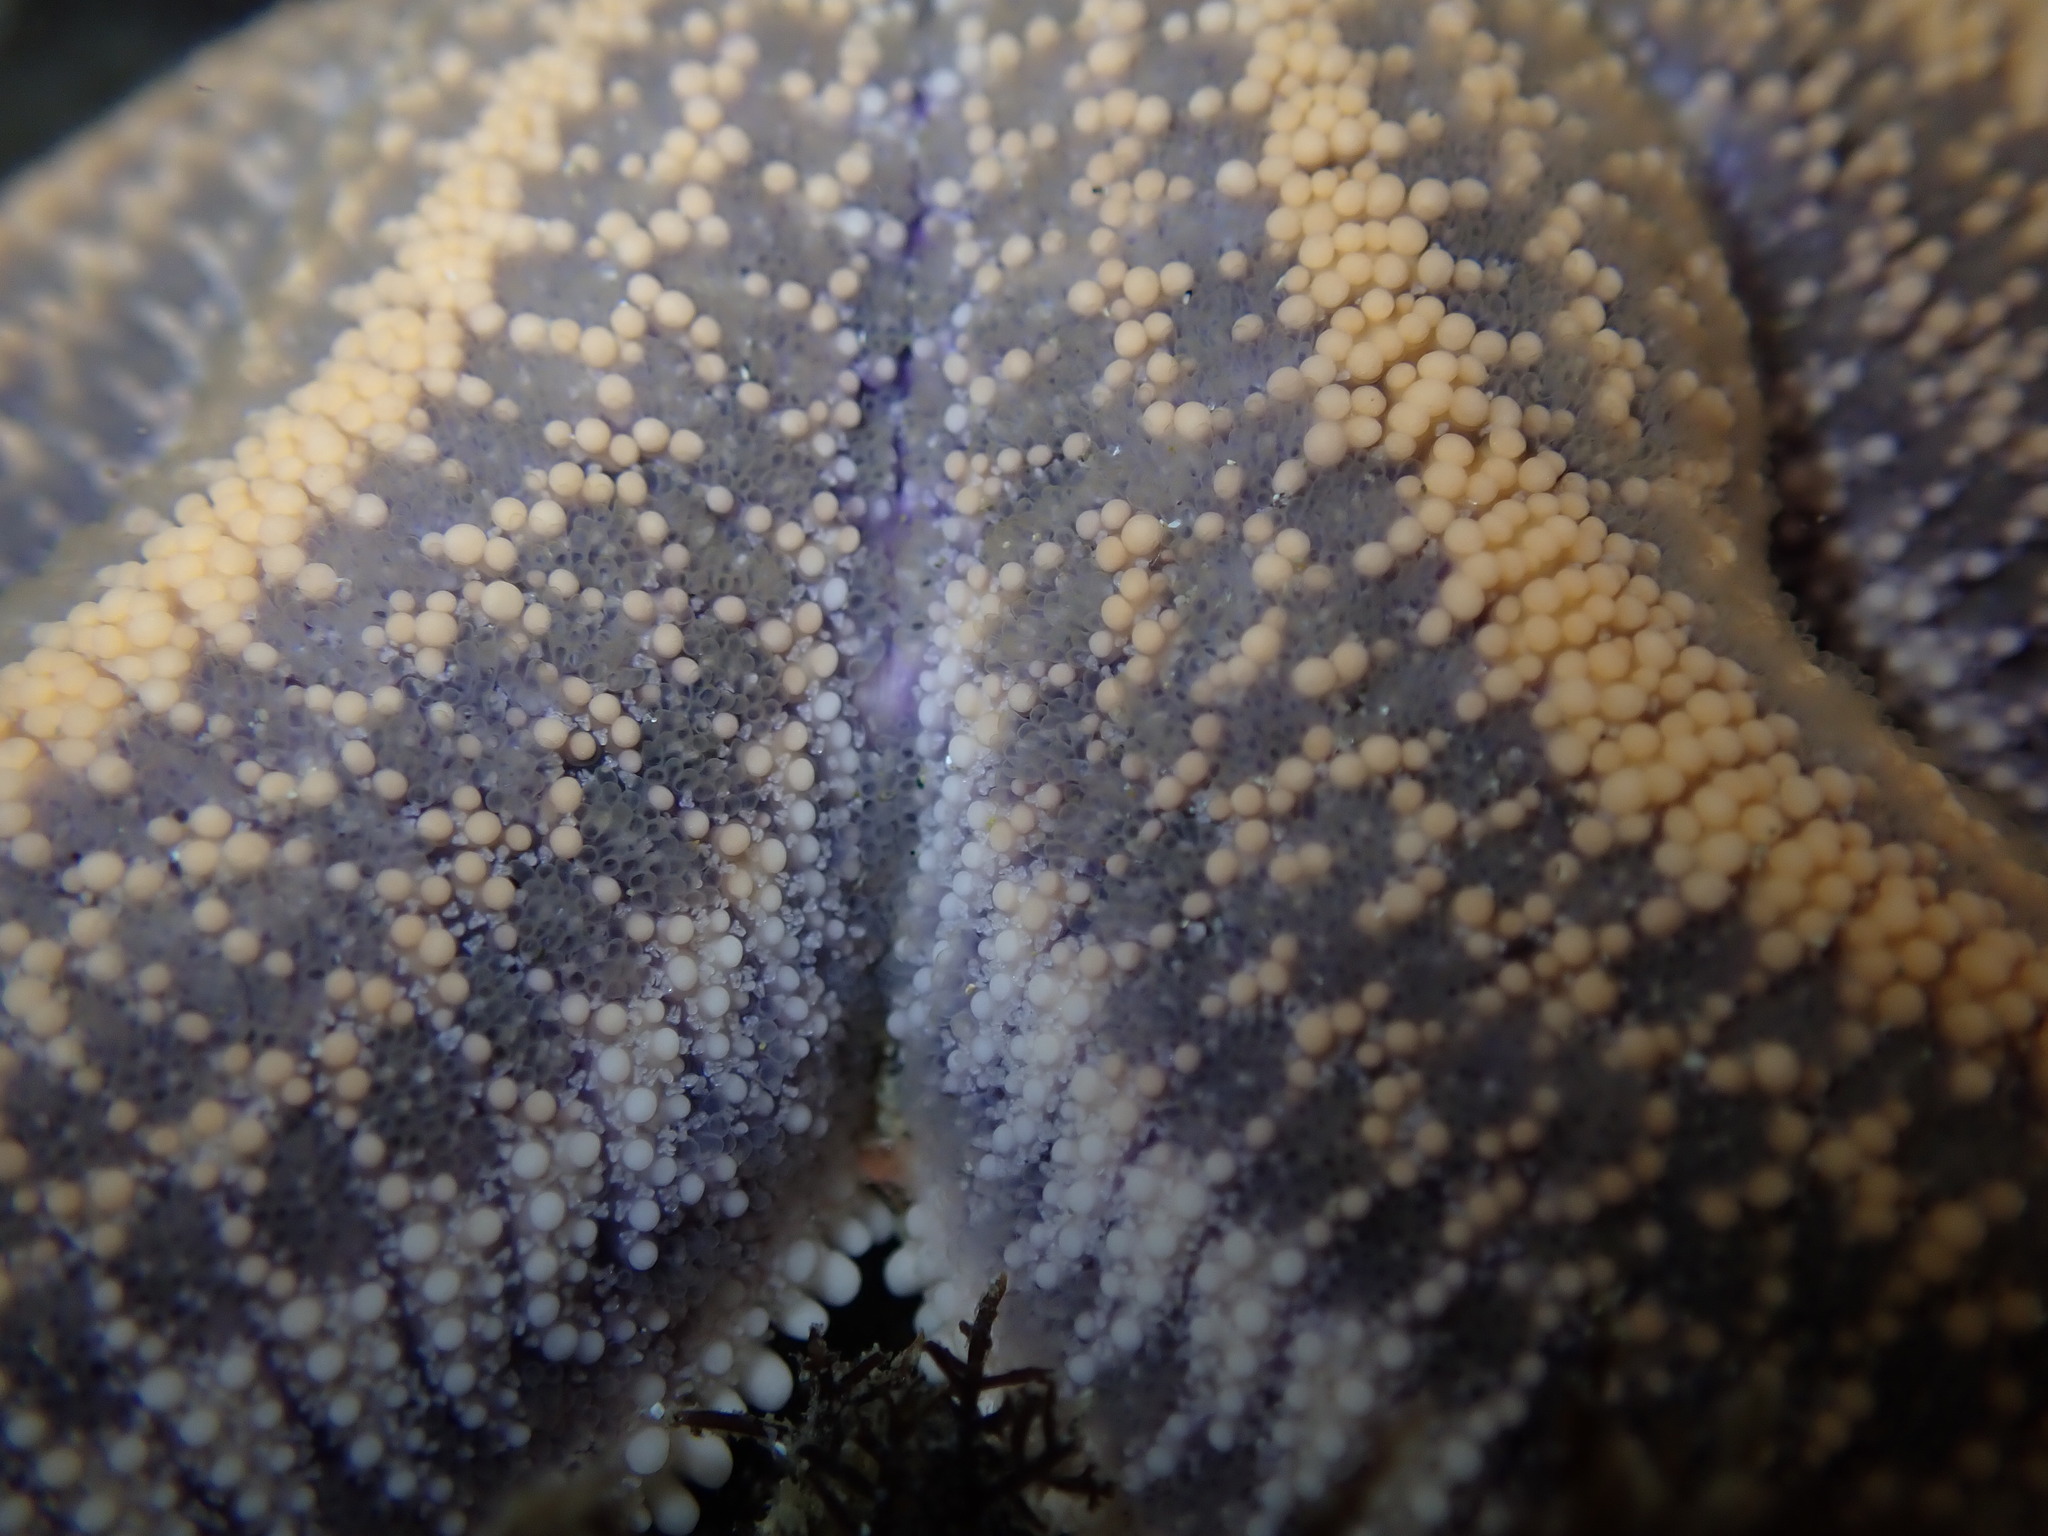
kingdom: Animalia
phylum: Echinodermata
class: Asteroidea
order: Forcipulatida
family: Stichasteridae
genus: Stichaster
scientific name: Stichaster australis
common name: Reef starfish
